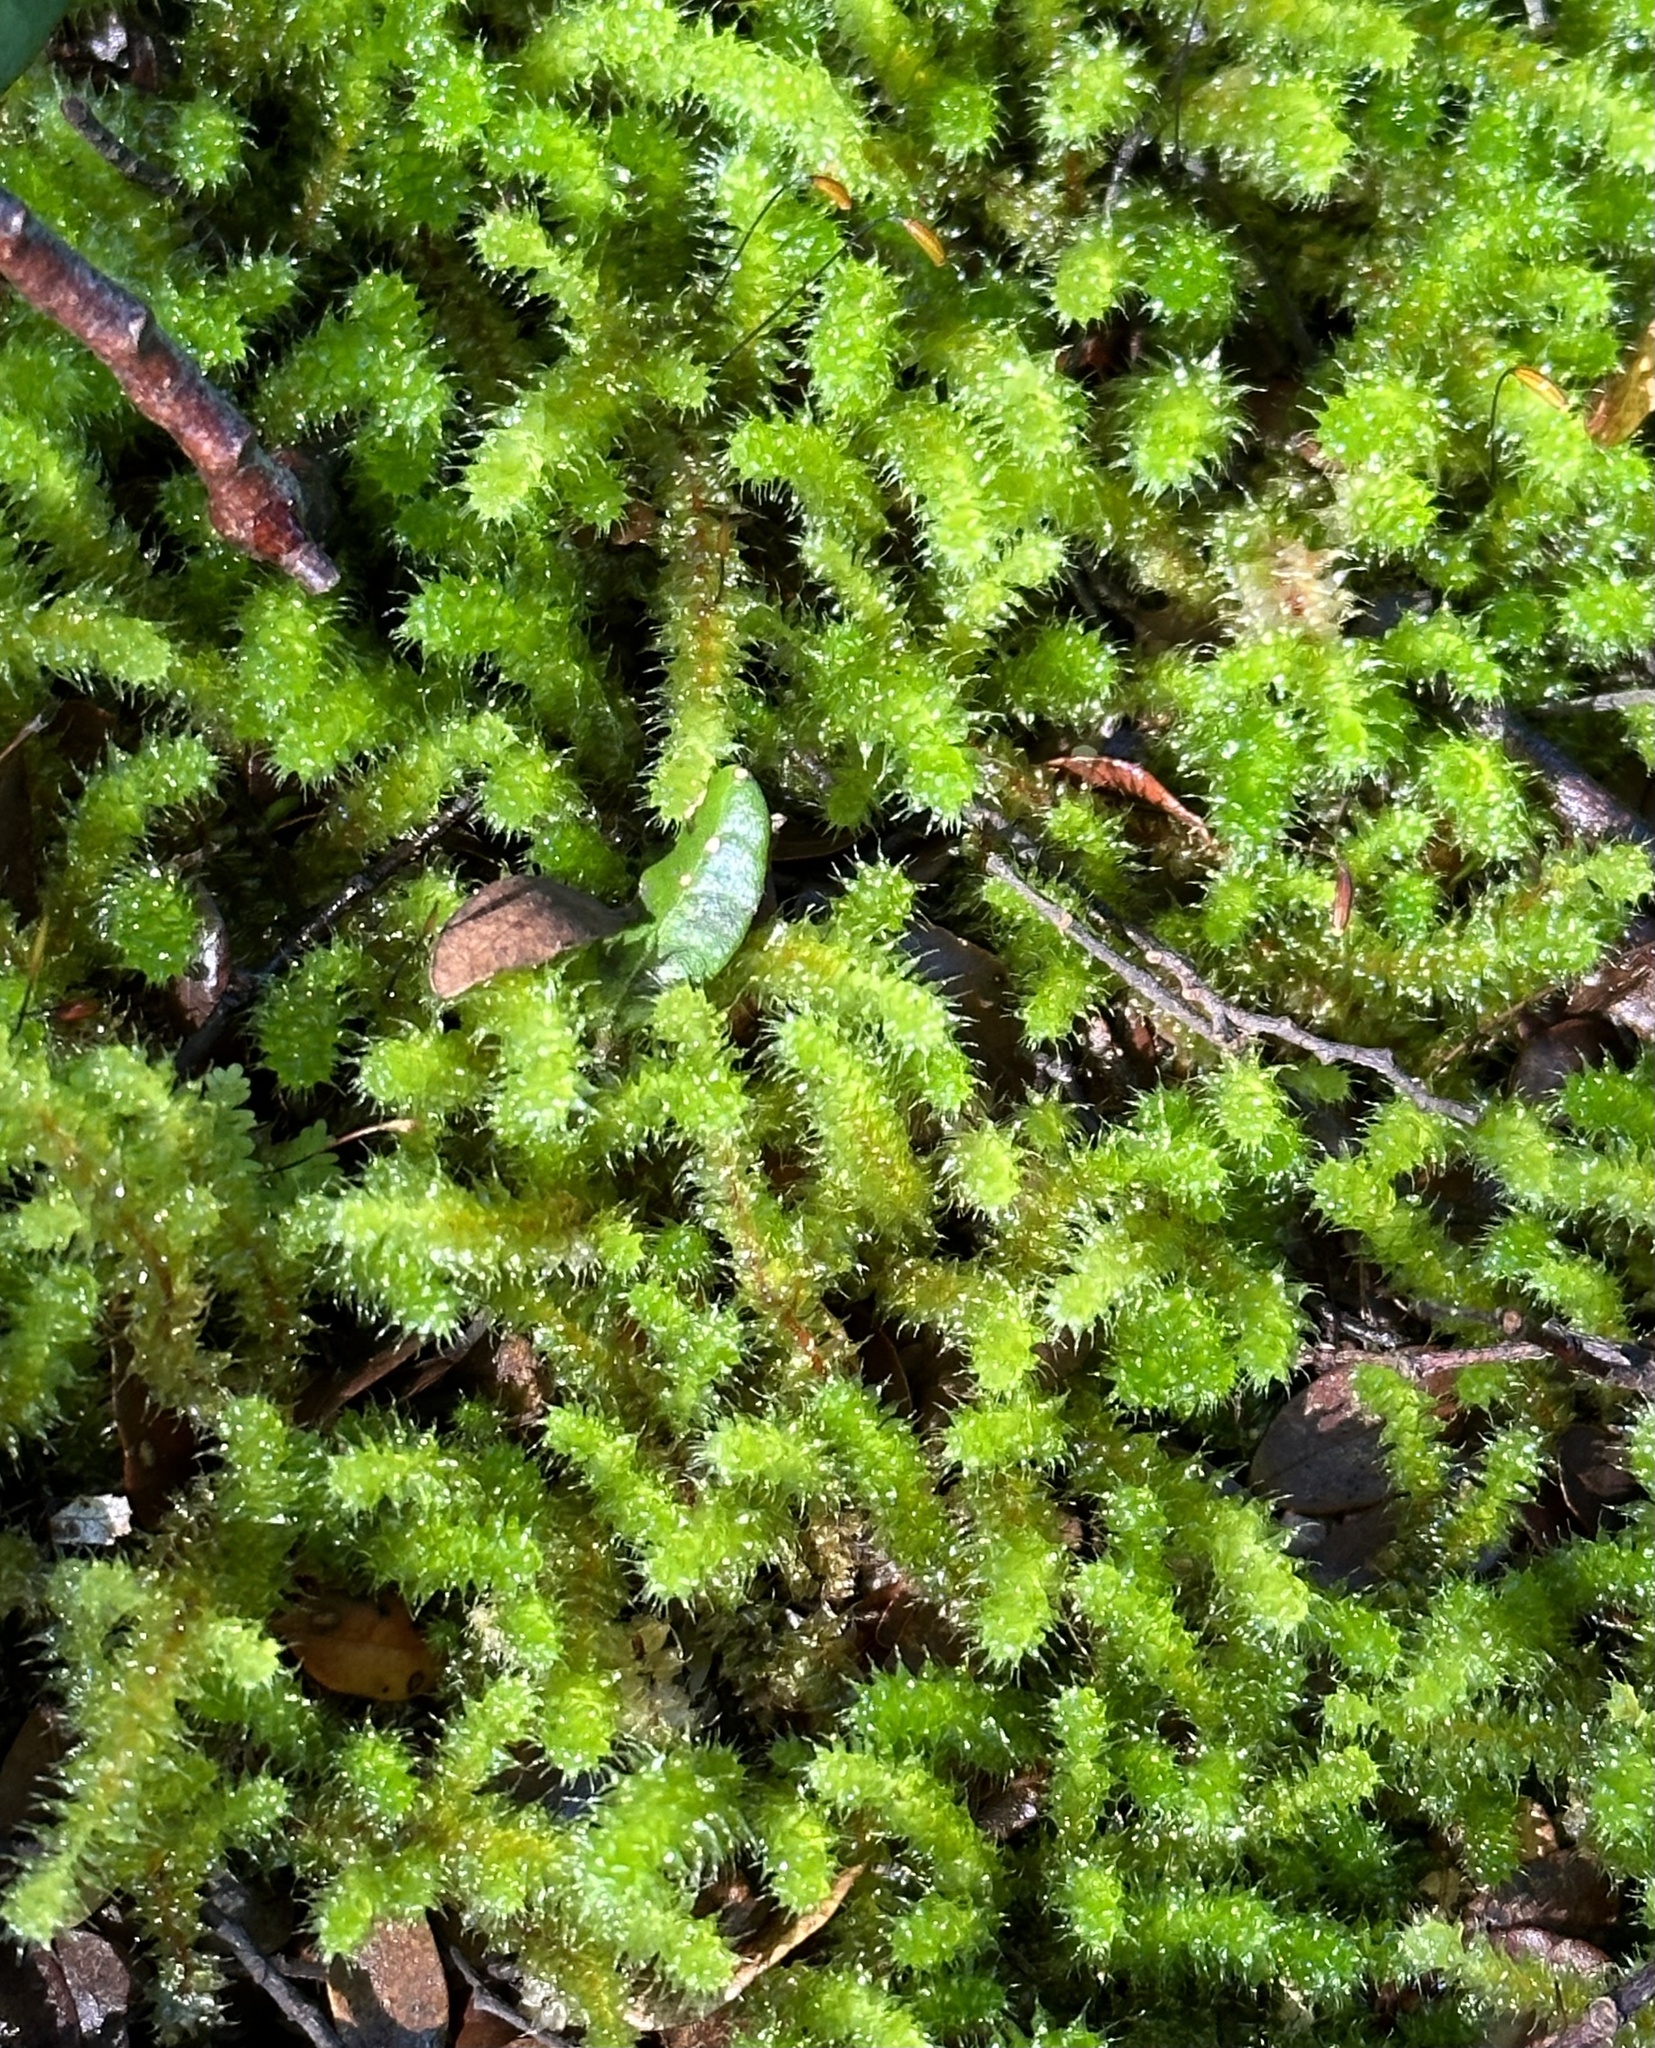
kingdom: Plantae
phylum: Bryophyta
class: Bryopsida
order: Ptychomniales
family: Ptychomniaceae
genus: Ptychomnion
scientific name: Ptychomnion aciculare
